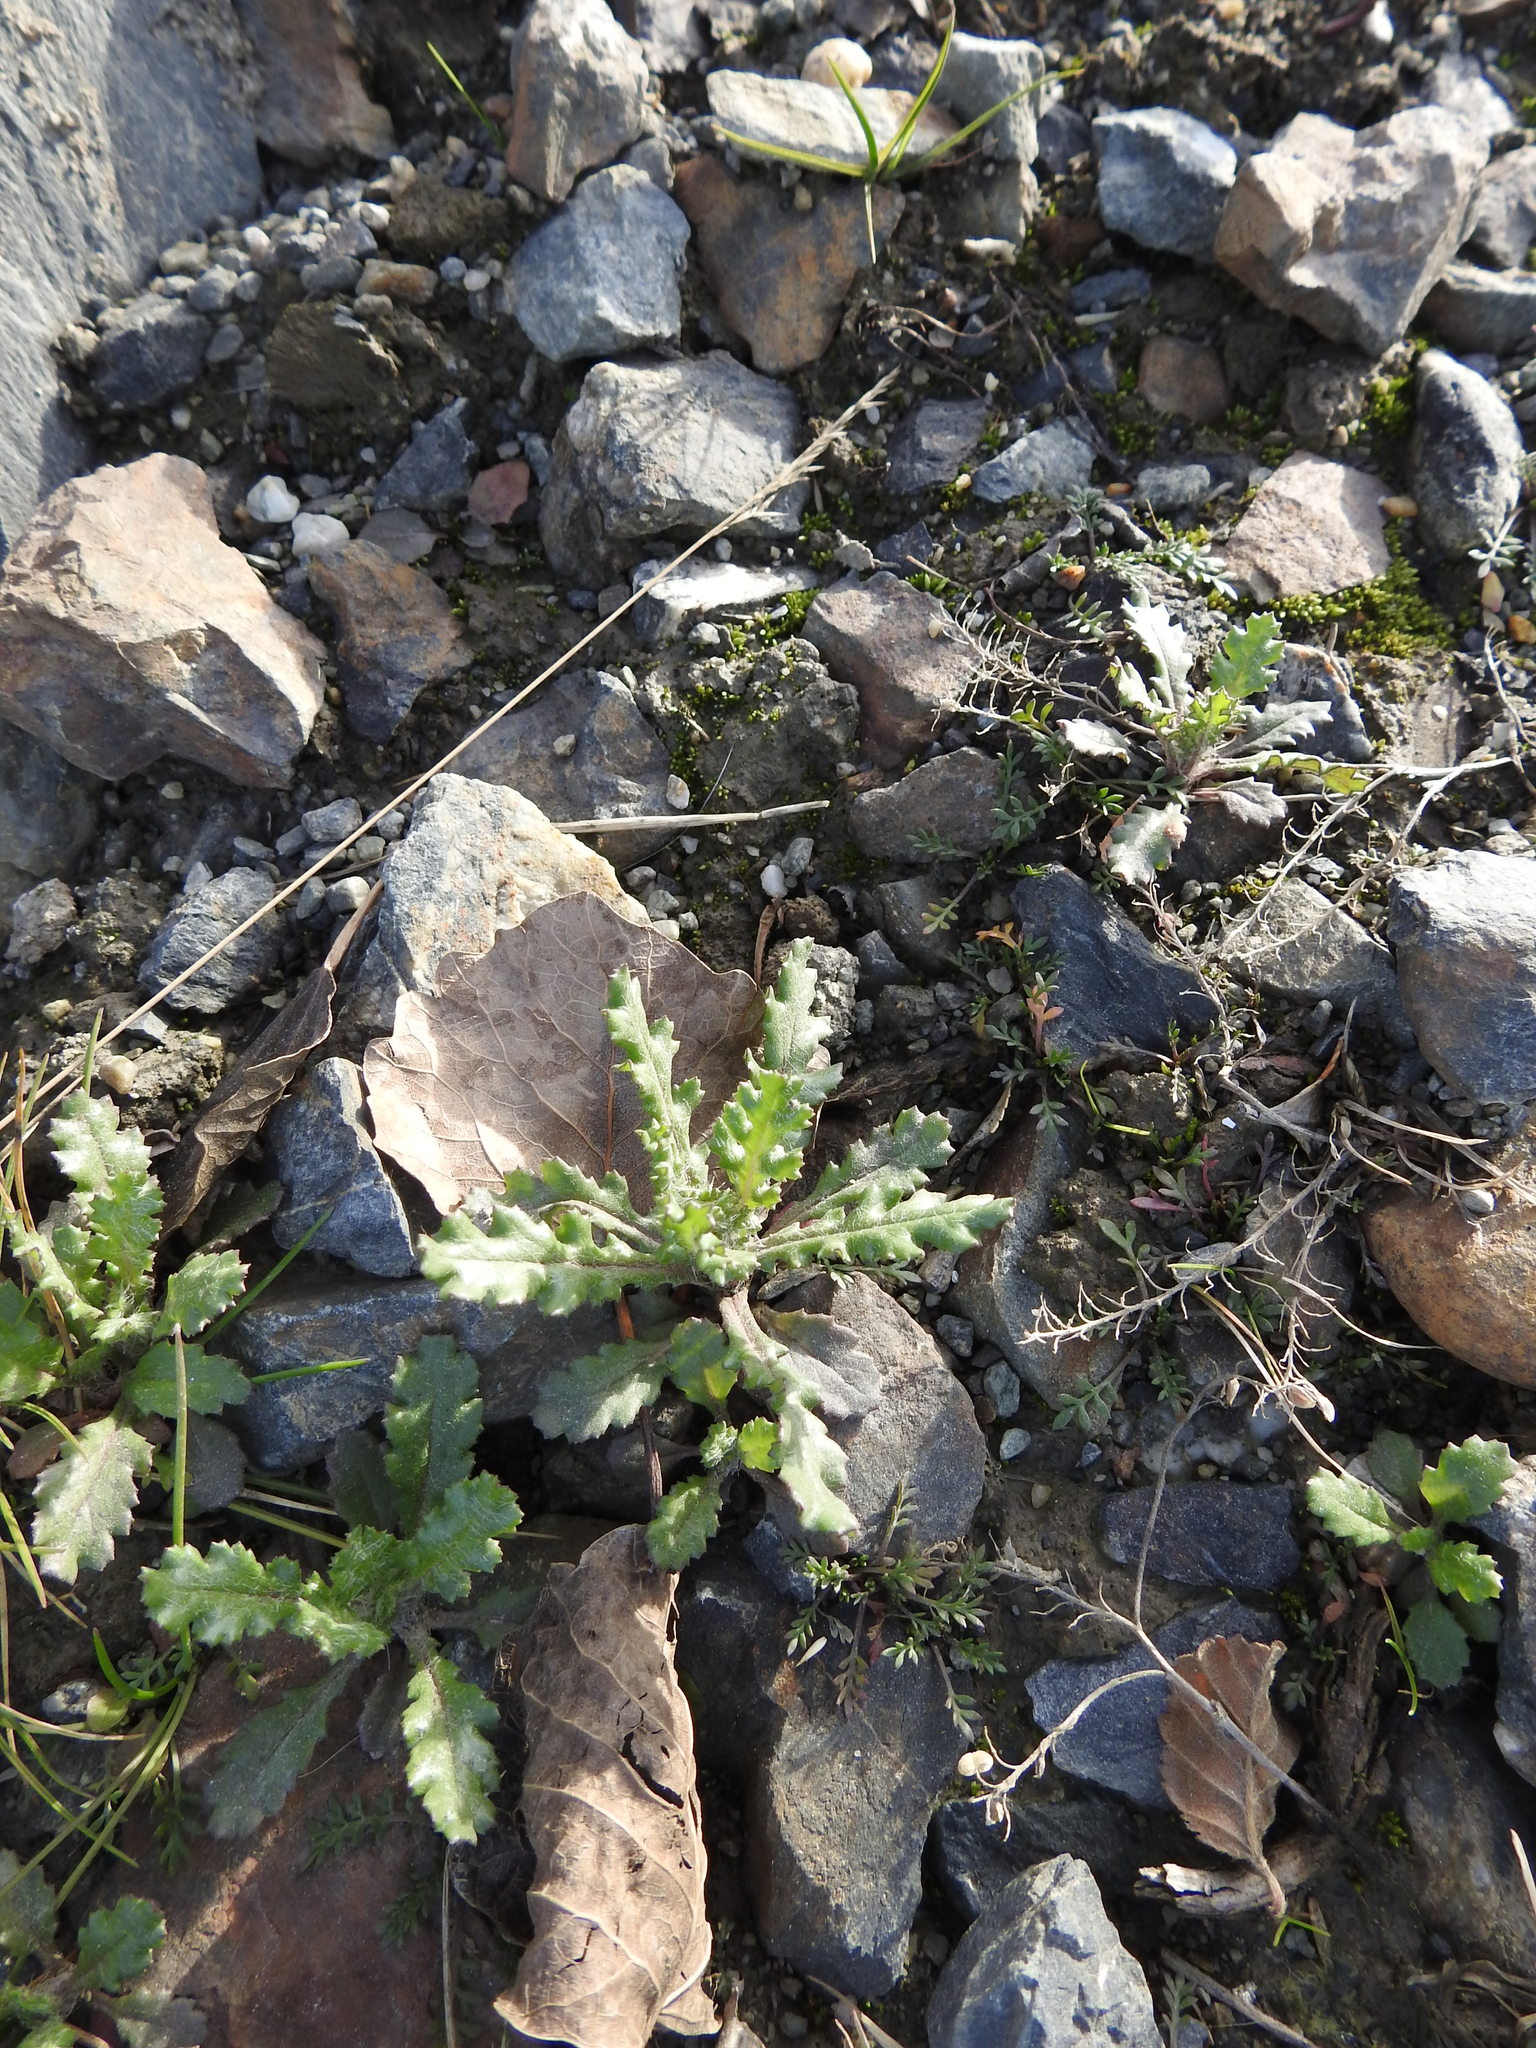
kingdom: Plantae
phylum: Tracheophyta
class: Magnoliopsida
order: Asterales
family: Asteraceae
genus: Senecio
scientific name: Senecio vulgaris
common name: Old-man-in-the-spring
